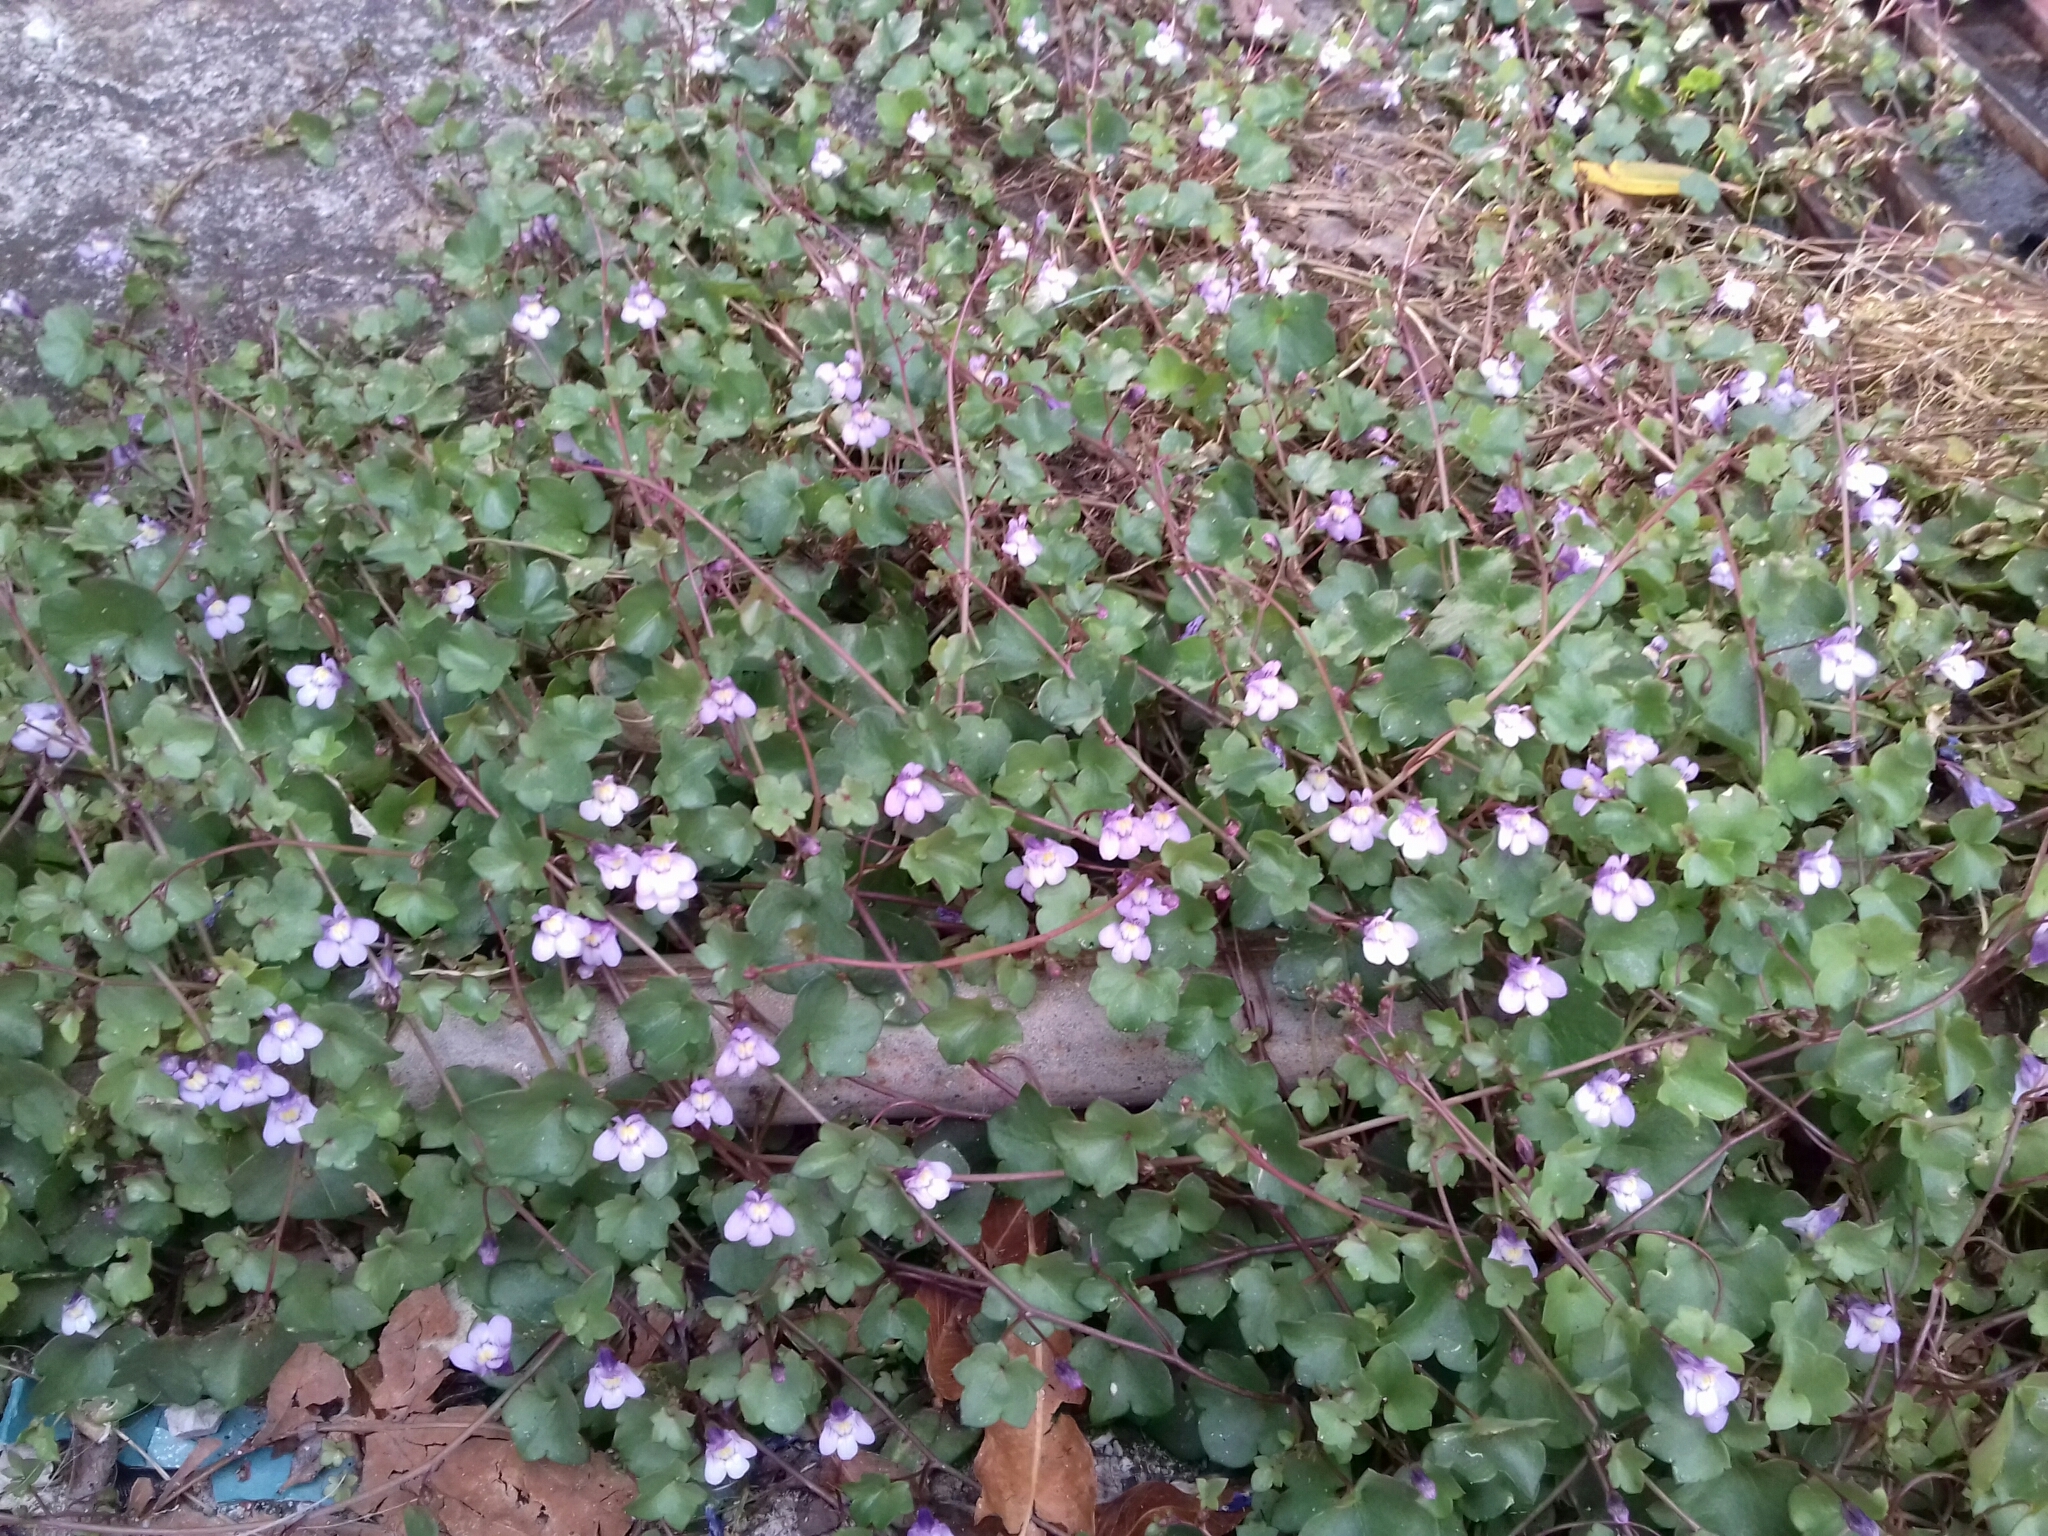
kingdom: Plantae
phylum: Tracheophyta
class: Magnoliopsida
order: Lamiales
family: Plantaginaceae
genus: Cymbalaria
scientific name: Cymbalaria muralis
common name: Ivy-leaved toadflax
